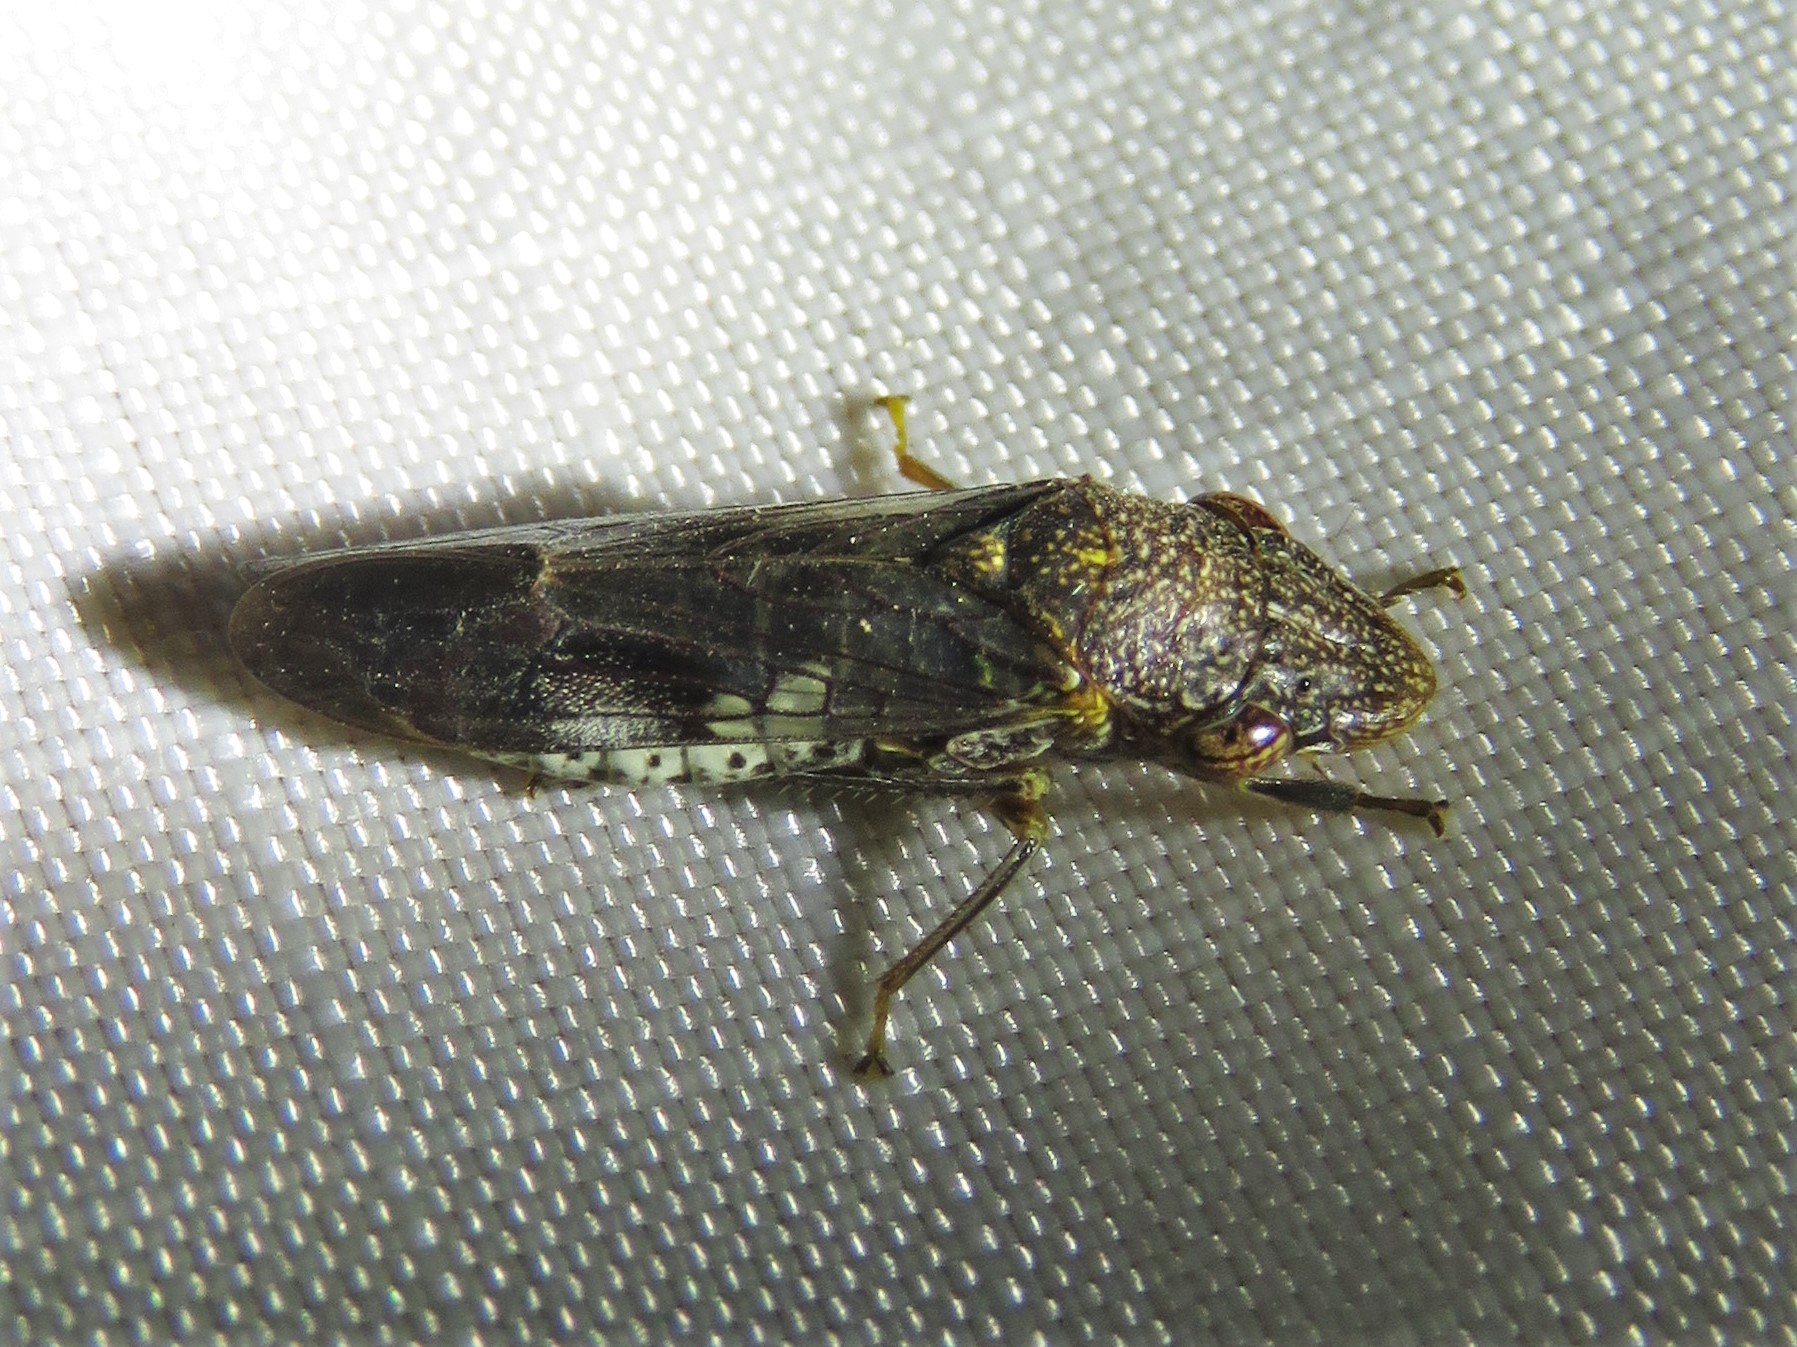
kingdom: Animalia
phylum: Arthropoda
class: Insecta
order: Hemiptera
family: Cicadellidae
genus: Homalodisca
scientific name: Homalodisca vitripennis
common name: Glassy-winged sharpshooter
